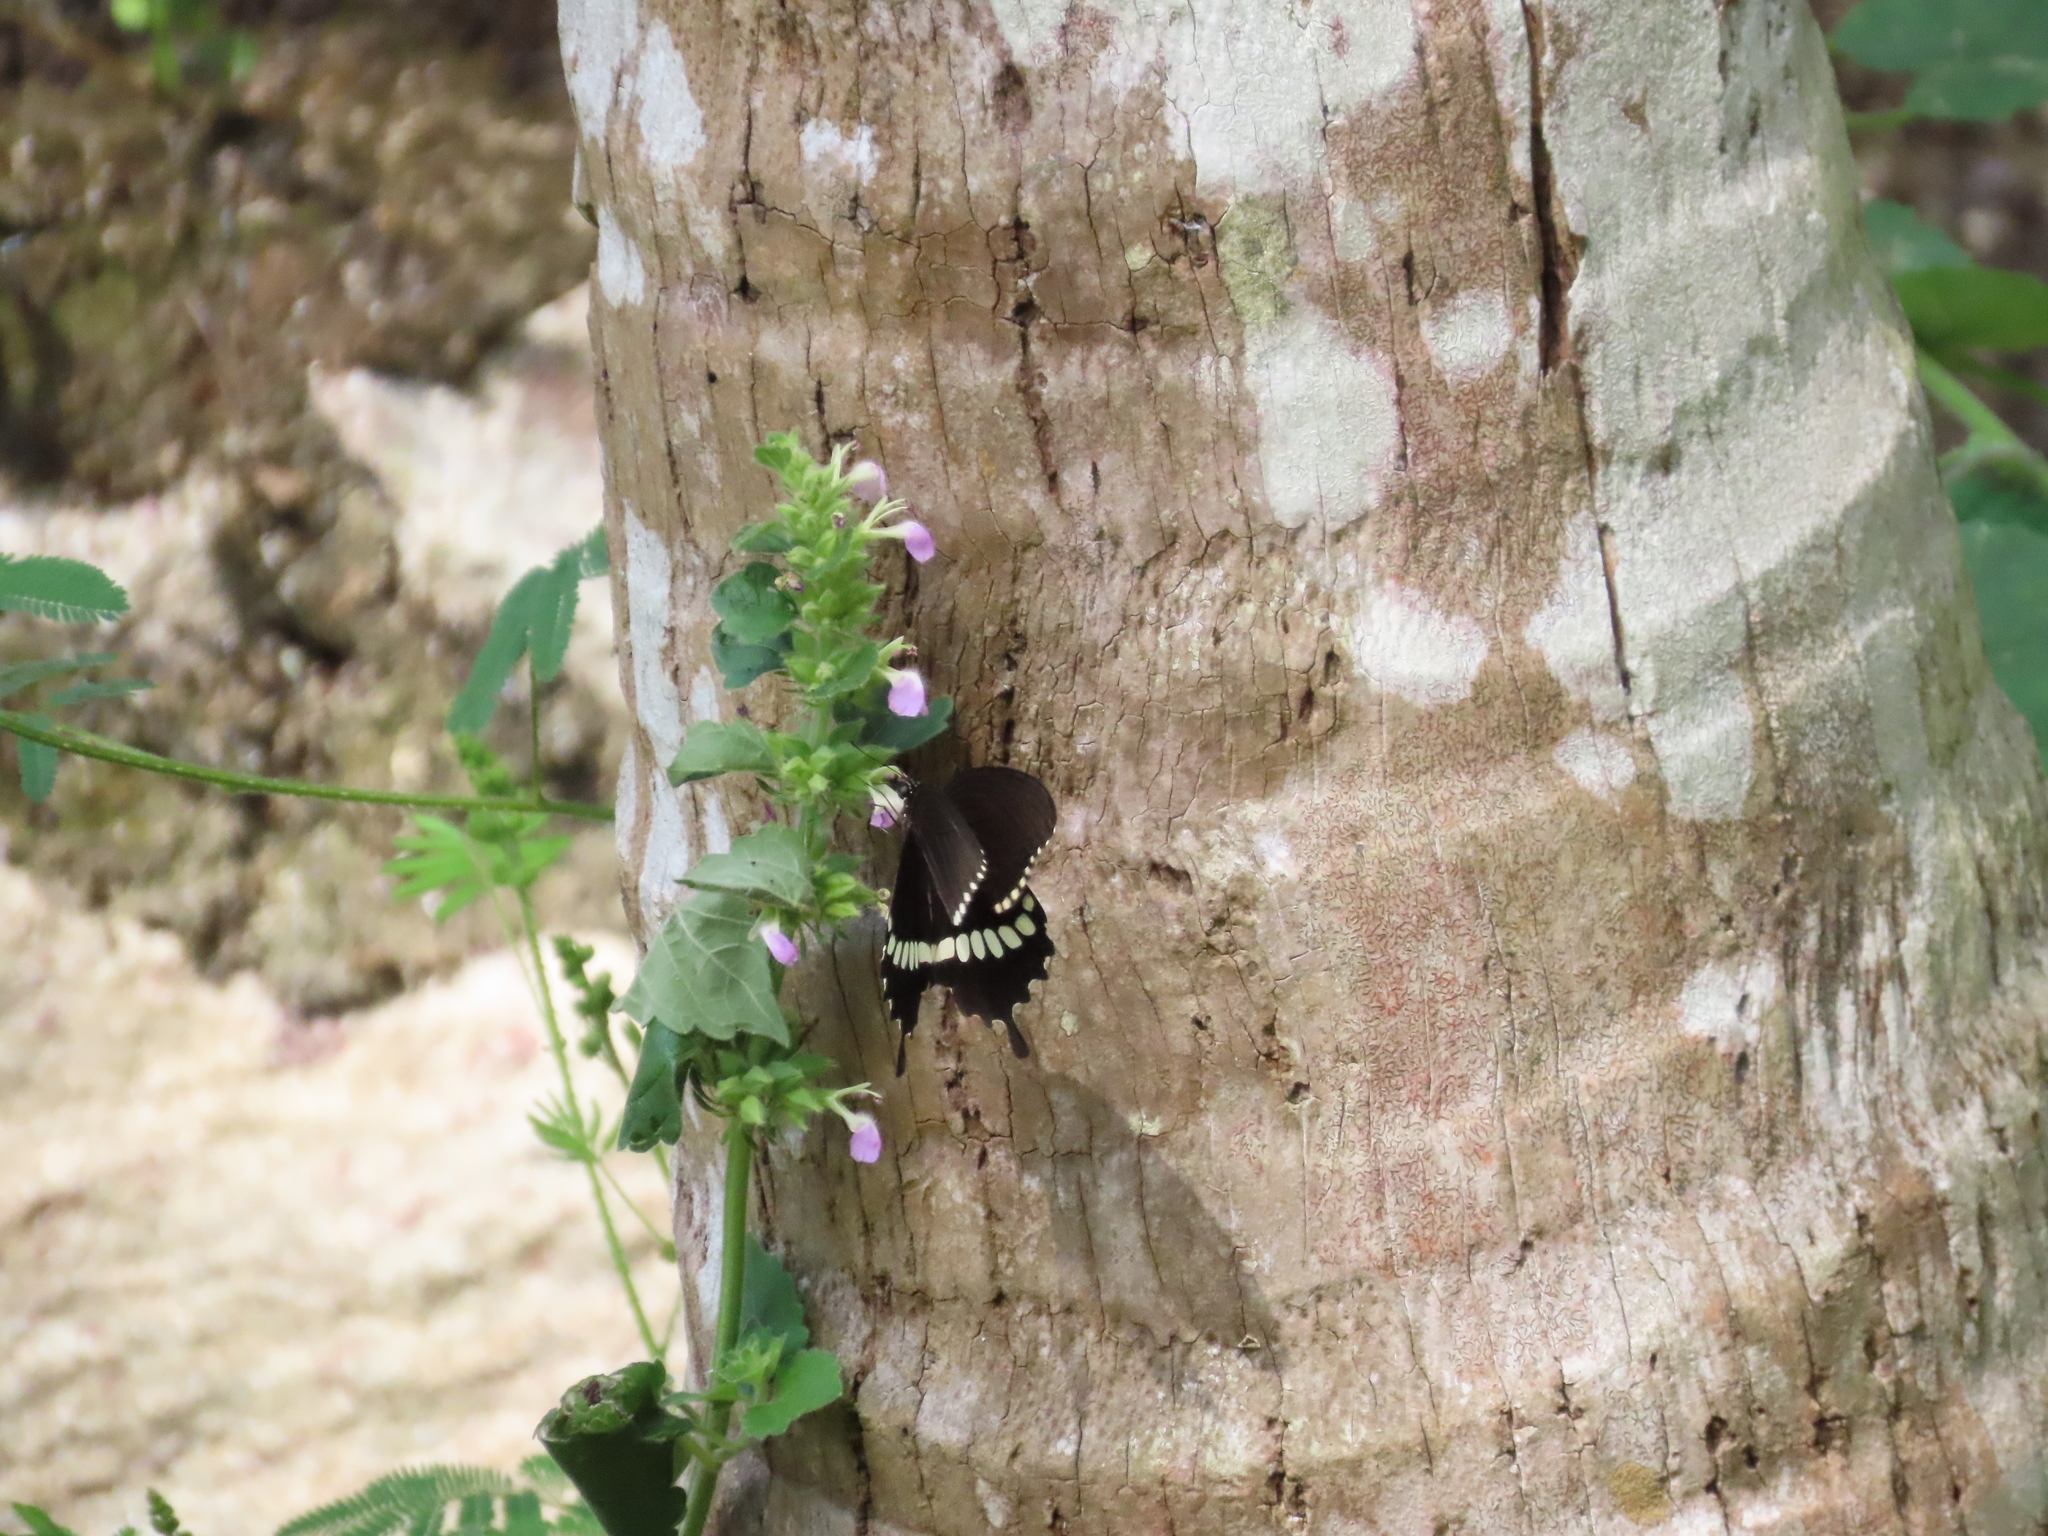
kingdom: Animalia
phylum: Arthropoda
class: Insecta
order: Lepidoptera
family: Papilionidae
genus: Papilio
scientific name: Papilio polytes
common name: Common mormon
